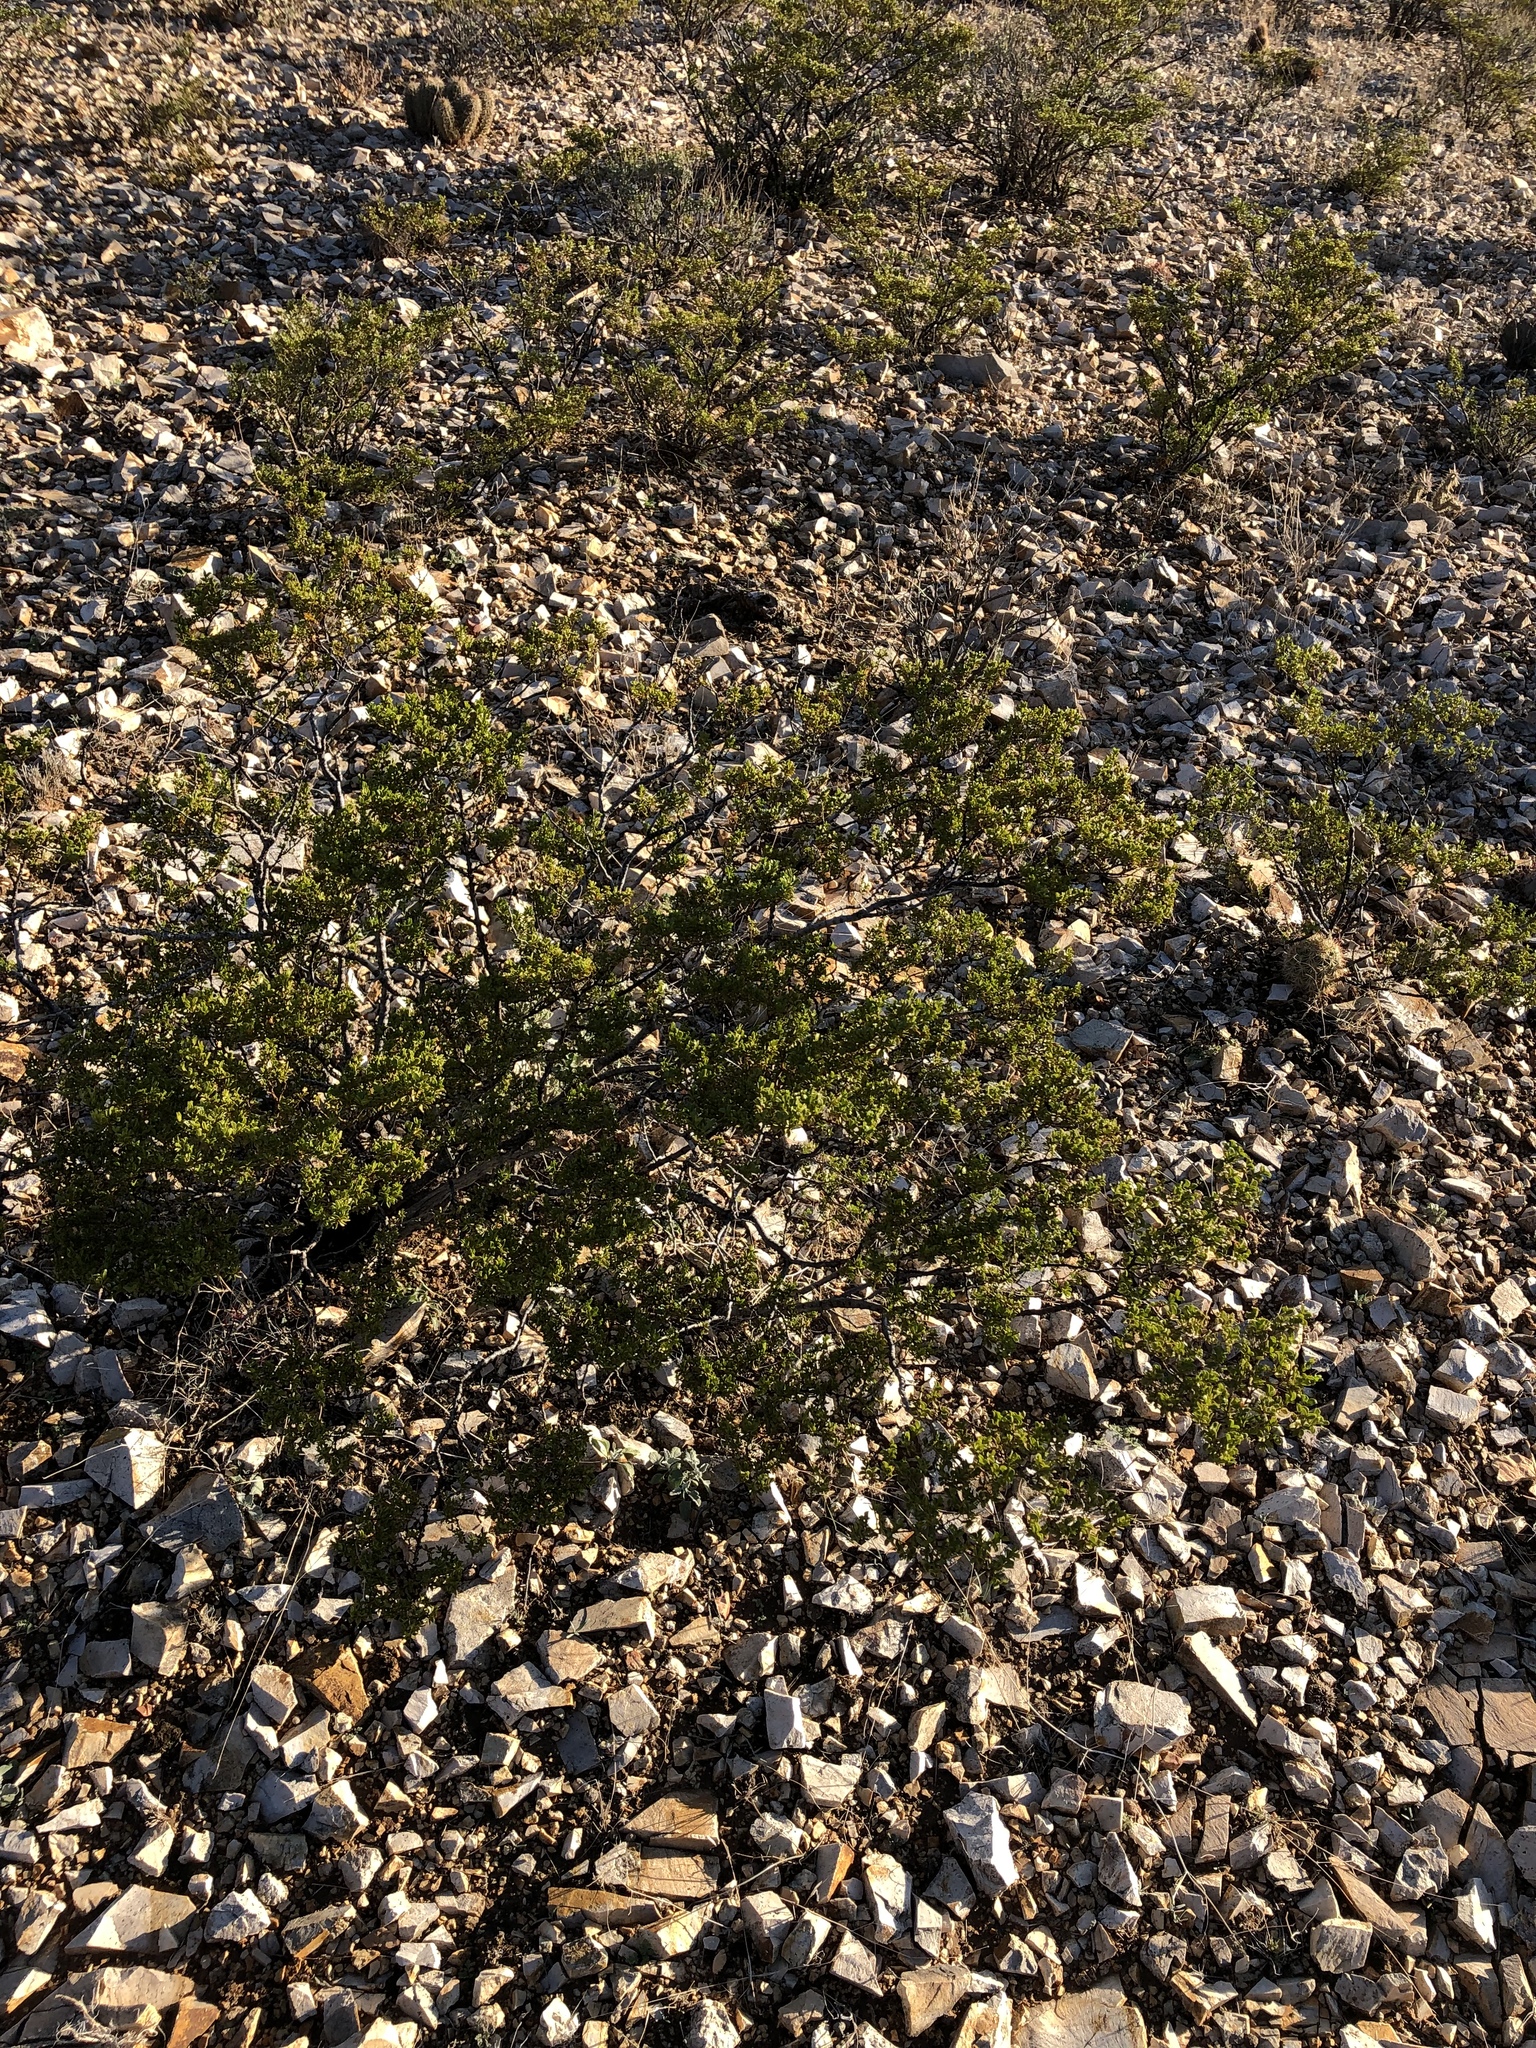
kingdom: Plantae
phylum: Tracheophyta
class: Magnoliopsida
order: Zygophyllales
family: Zygophyllaceae
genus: Larrea
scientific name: Larrea tridentata
